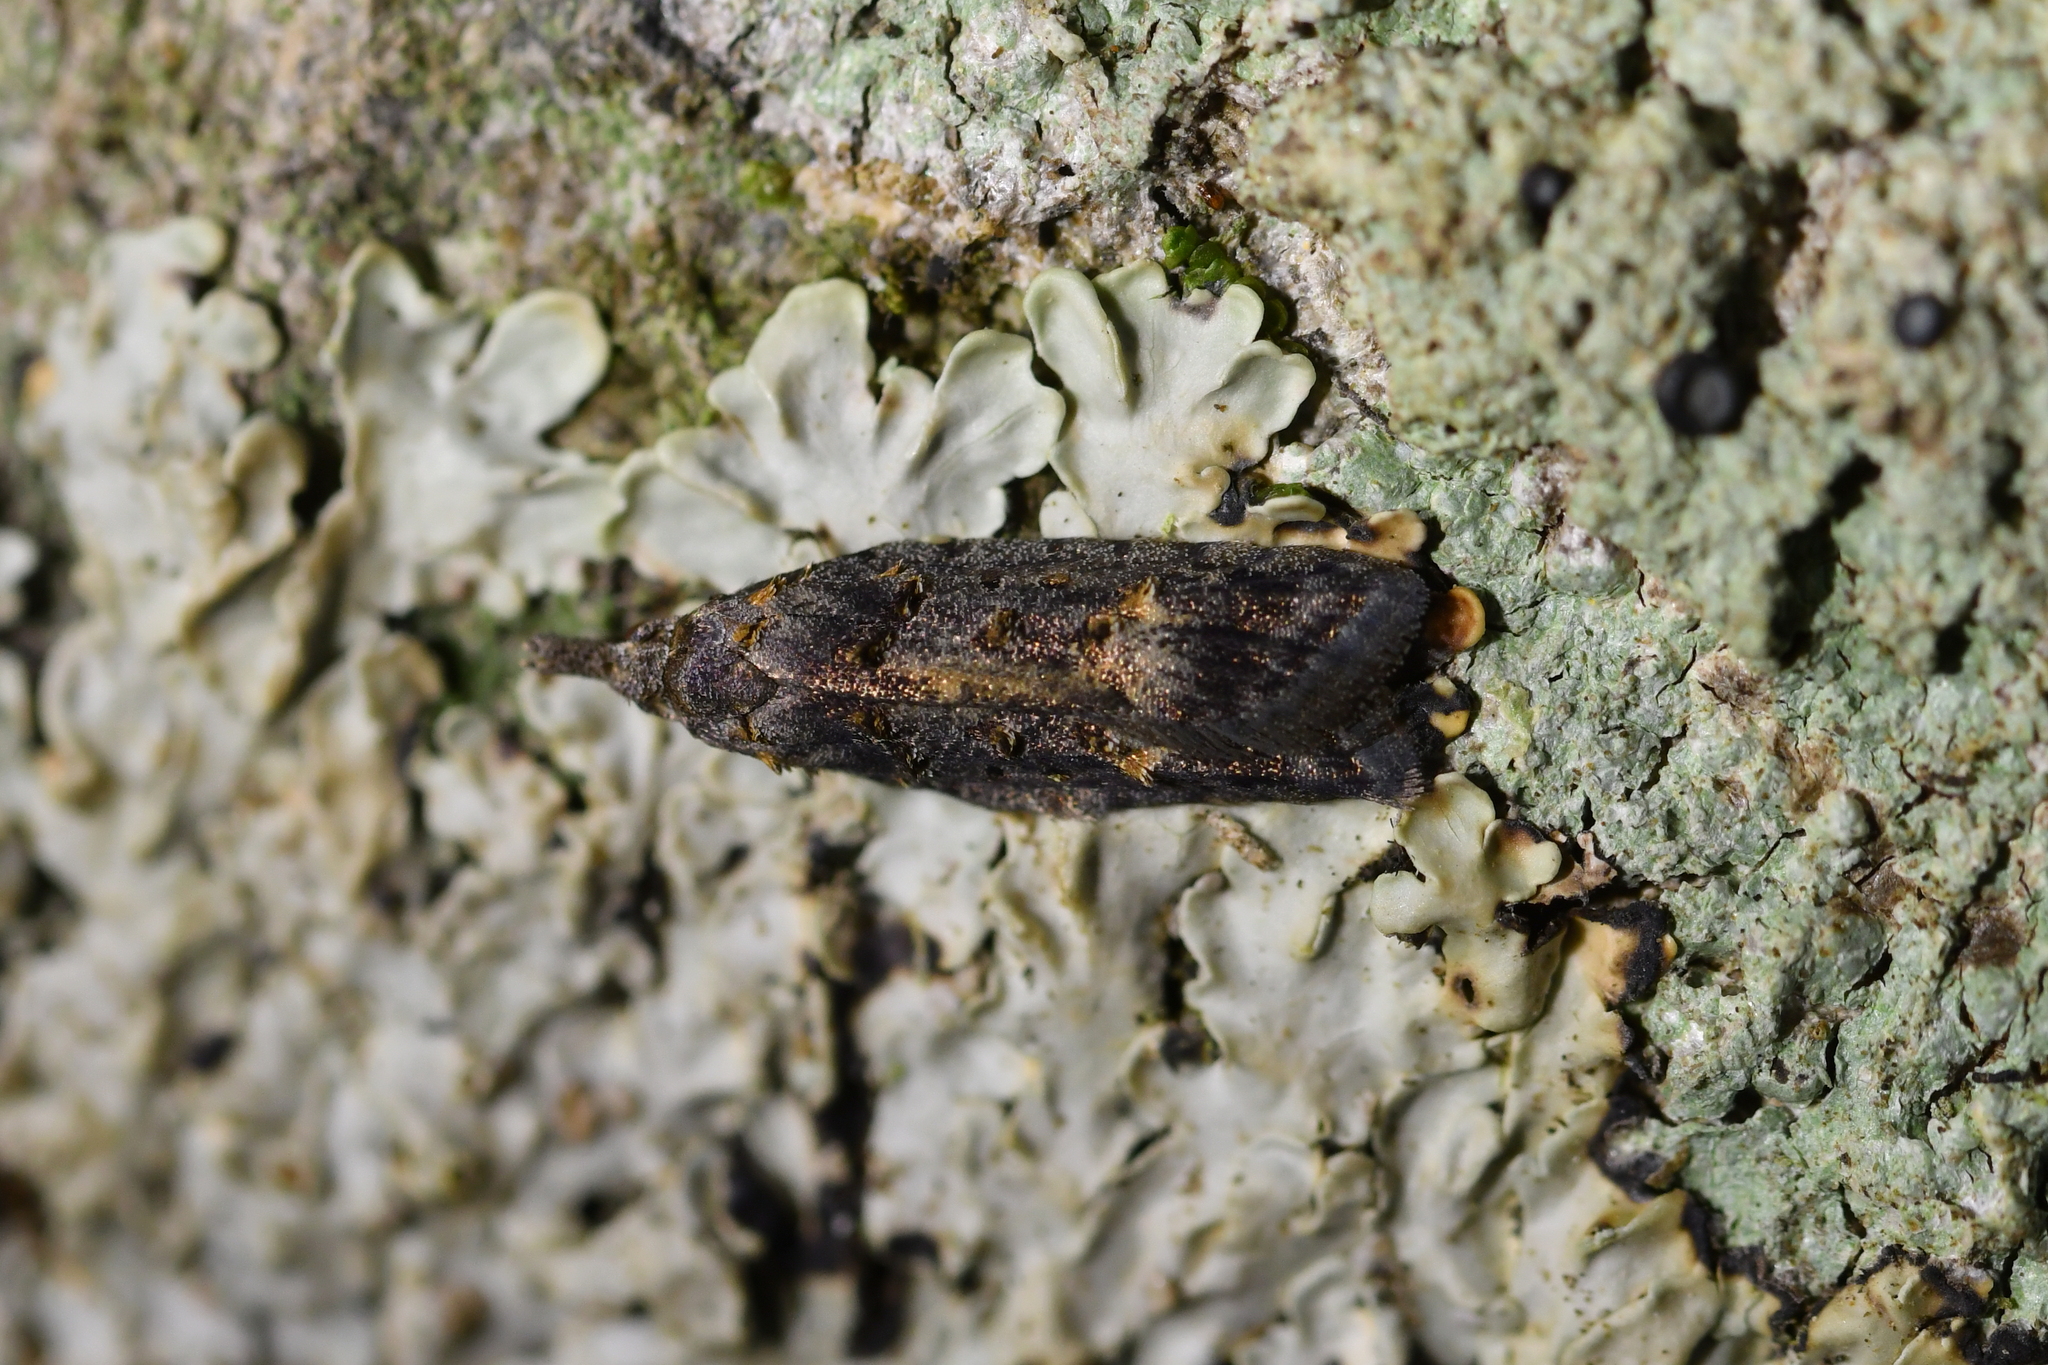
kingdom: Animalia
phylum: Arthropoda
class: Insecta
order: Lepidoptera
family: Carposinidae
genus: Carposina
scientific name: Carposina
